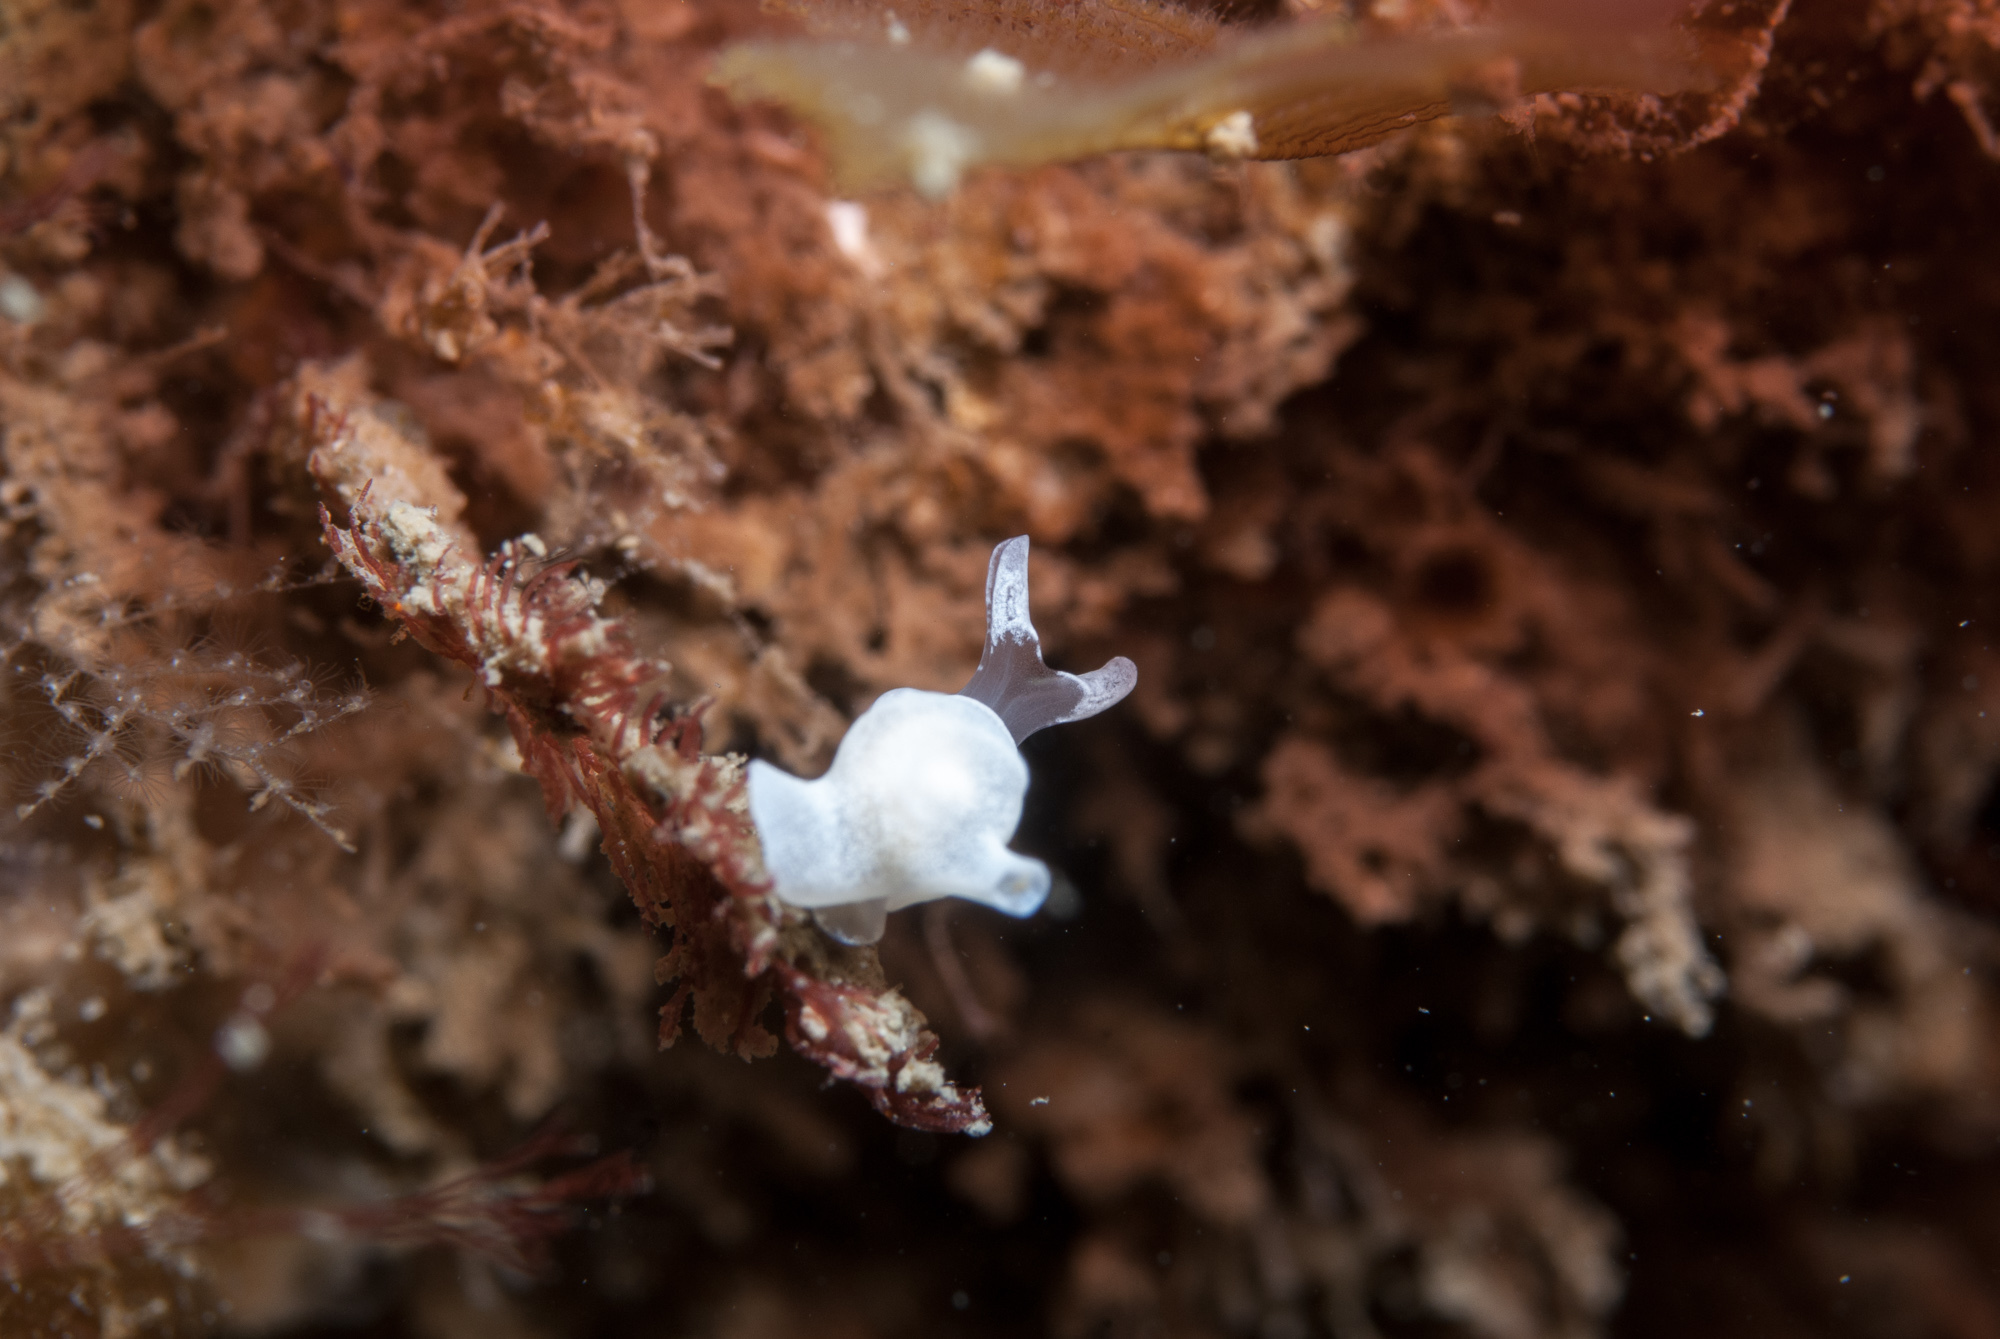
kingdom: Animalia
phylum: Mollusca
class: Gastropoda
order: Cephalaspidea
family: Colpodaspididae
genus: Colpodaspis
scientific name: Colpodaspis pusilla
